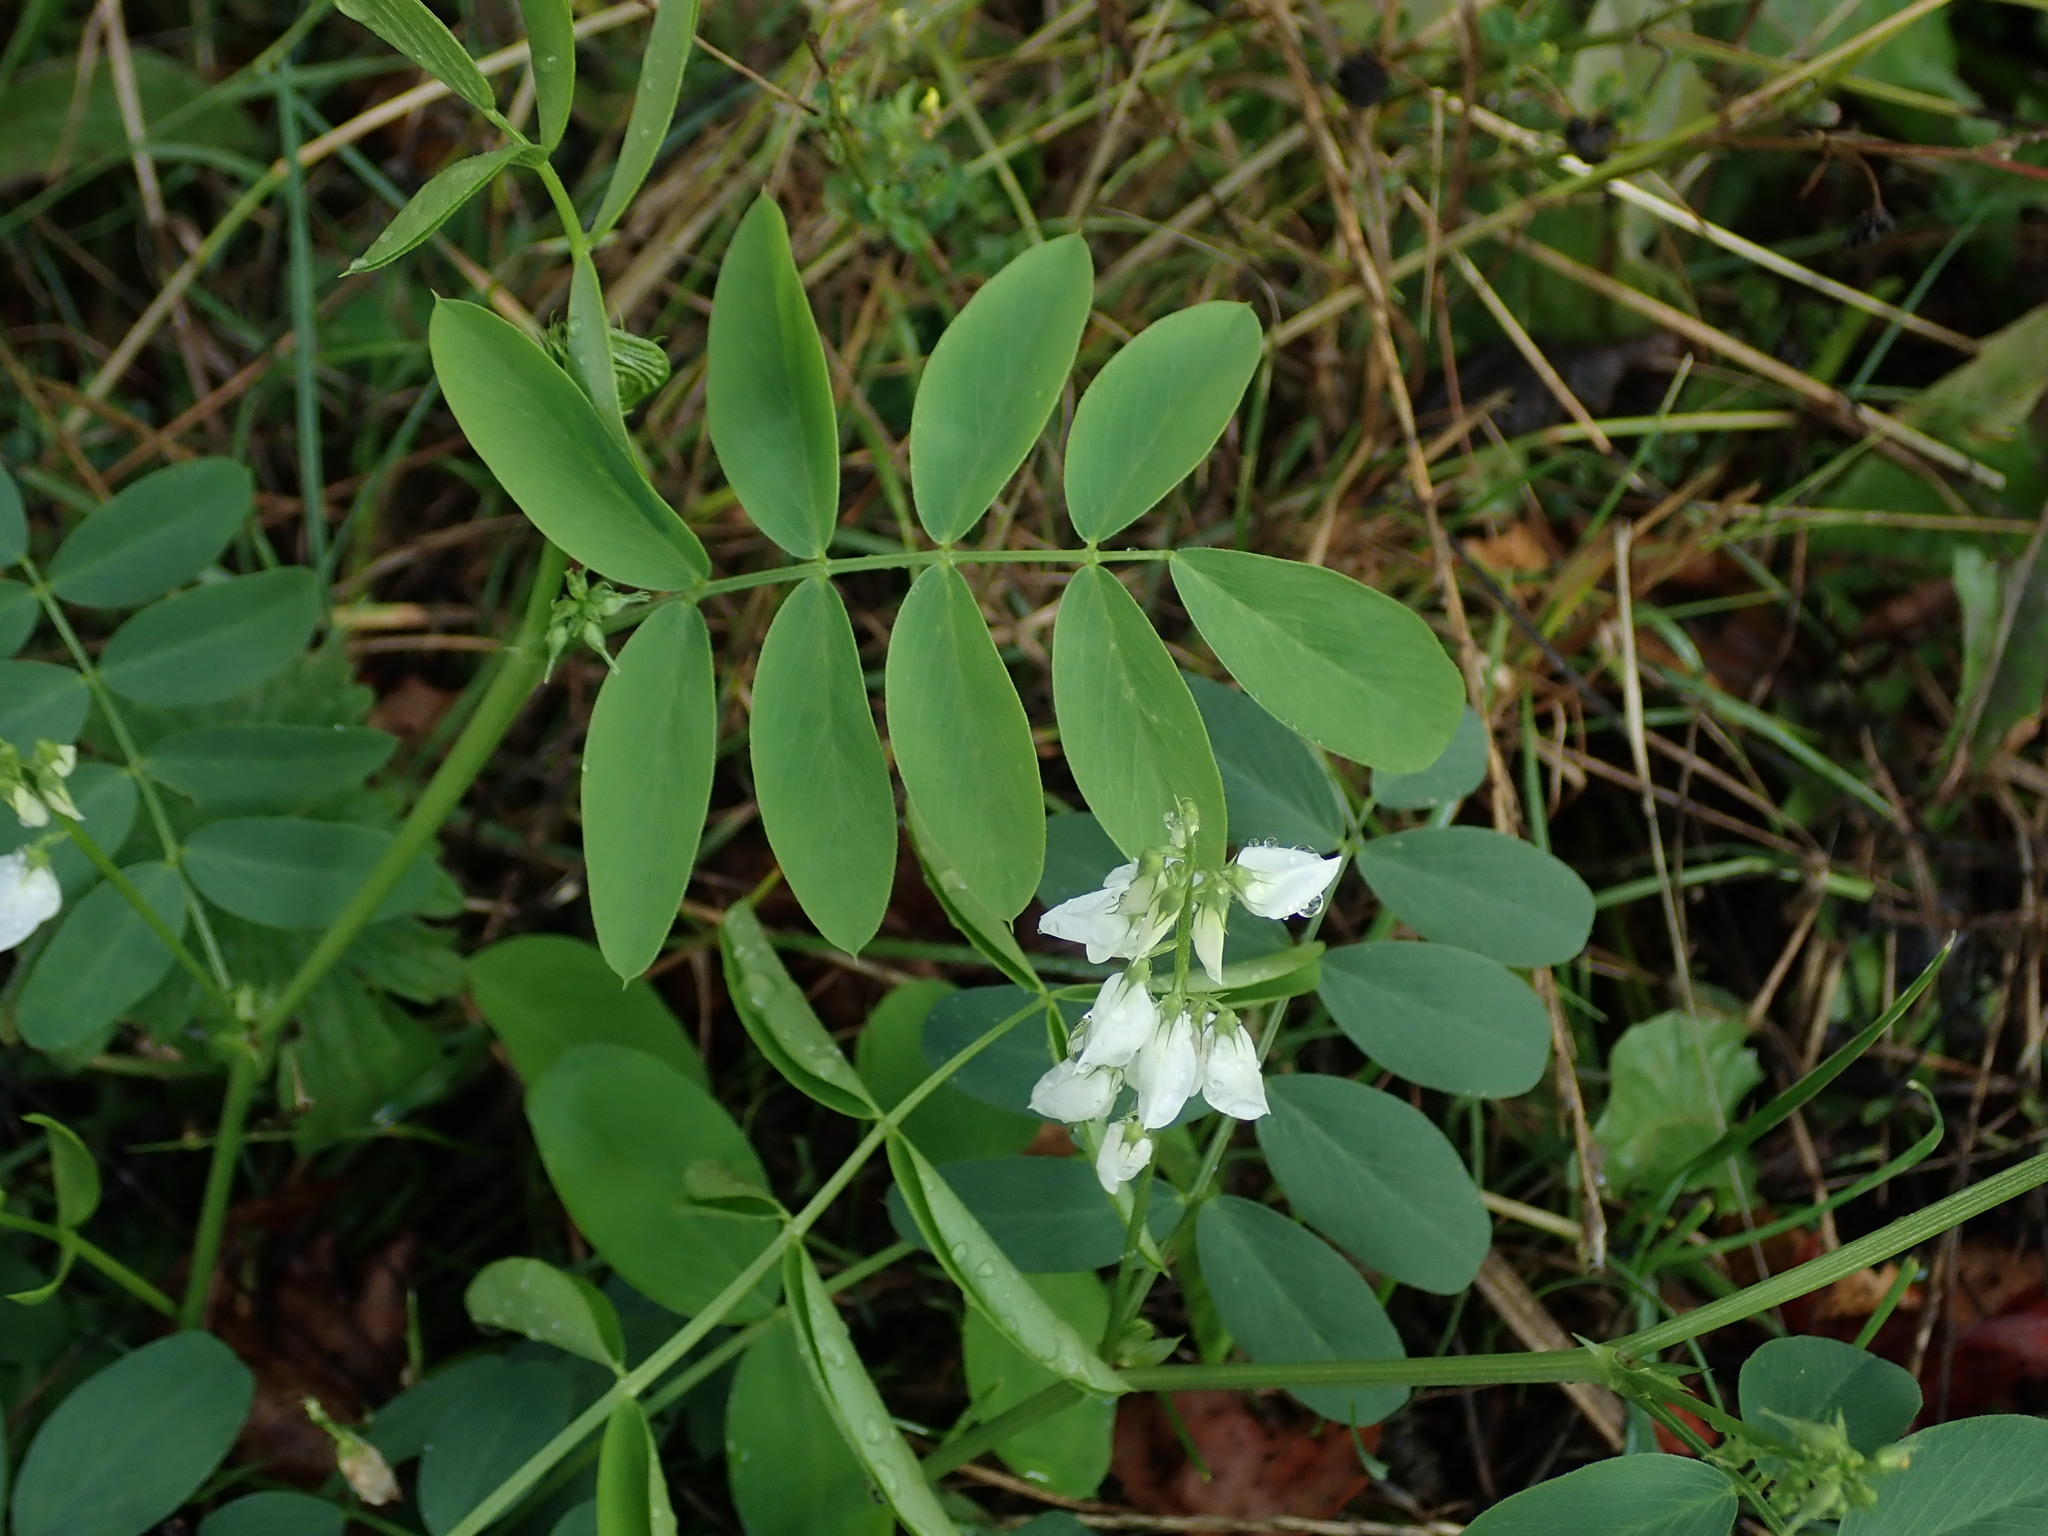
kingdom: Plantae
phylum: Tracheophyta
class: Magnoliopsida
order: Fabales
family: Fabaceae
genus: Galega
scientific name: Galega officinalis
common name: Goat's-rue
